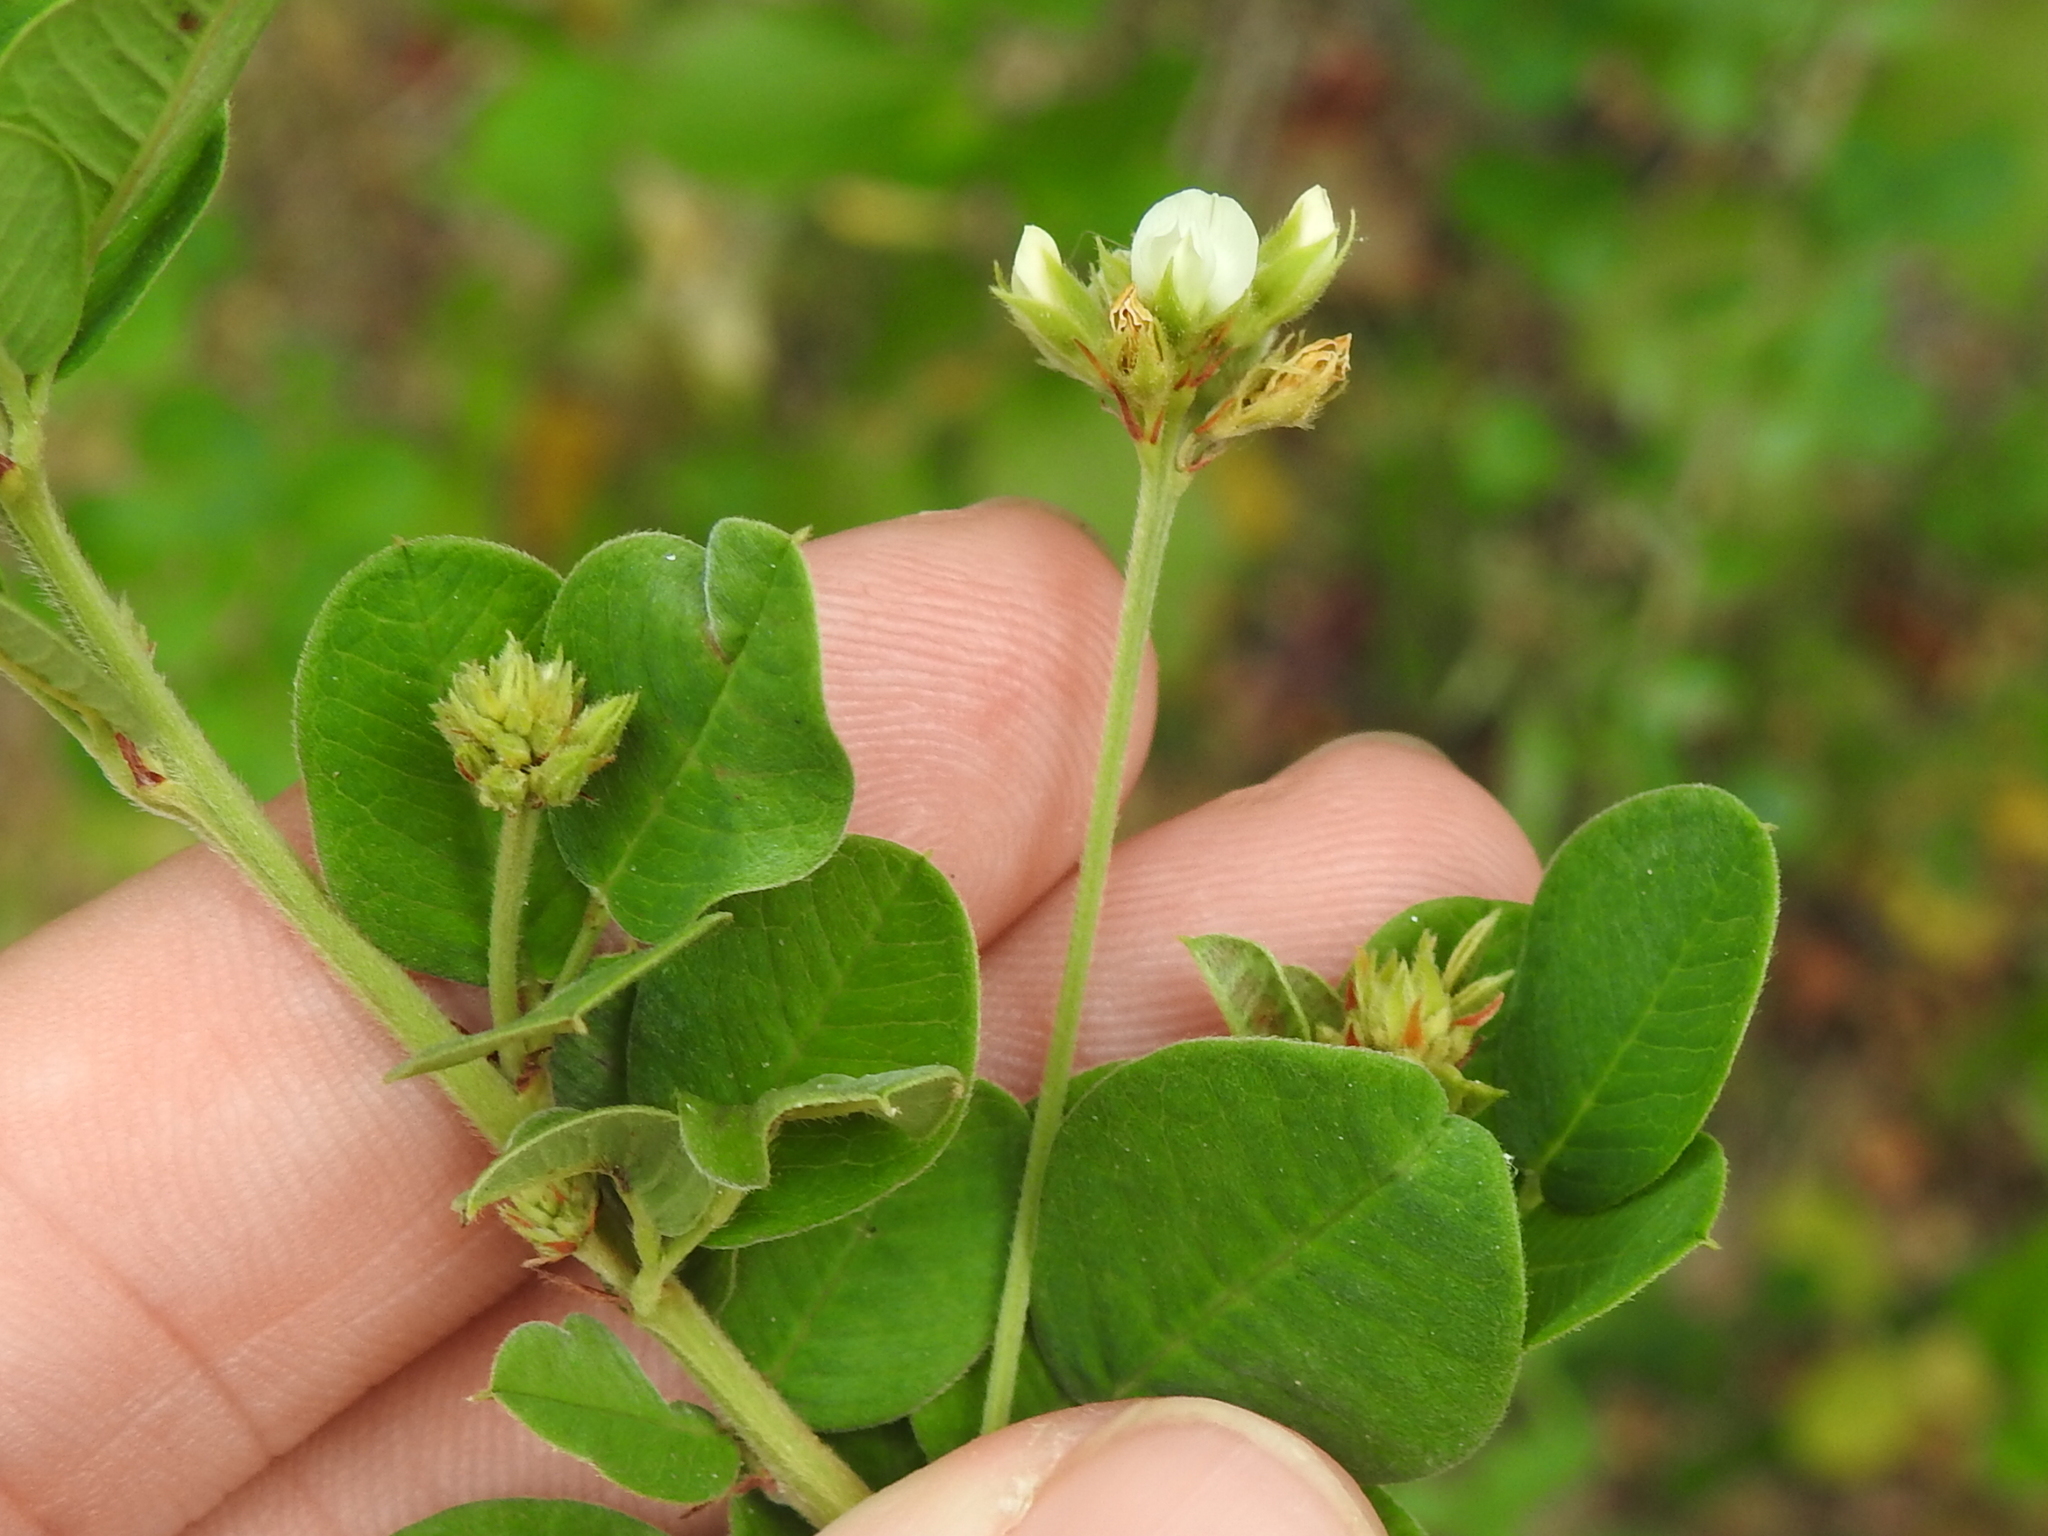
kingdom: Plantae
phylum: Tracheophyta
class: Magnoliopsida
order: Fabales
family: Fabaceae
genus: Lespedeza
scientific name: Lespedeza hirta
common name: Hairy lespedeza
